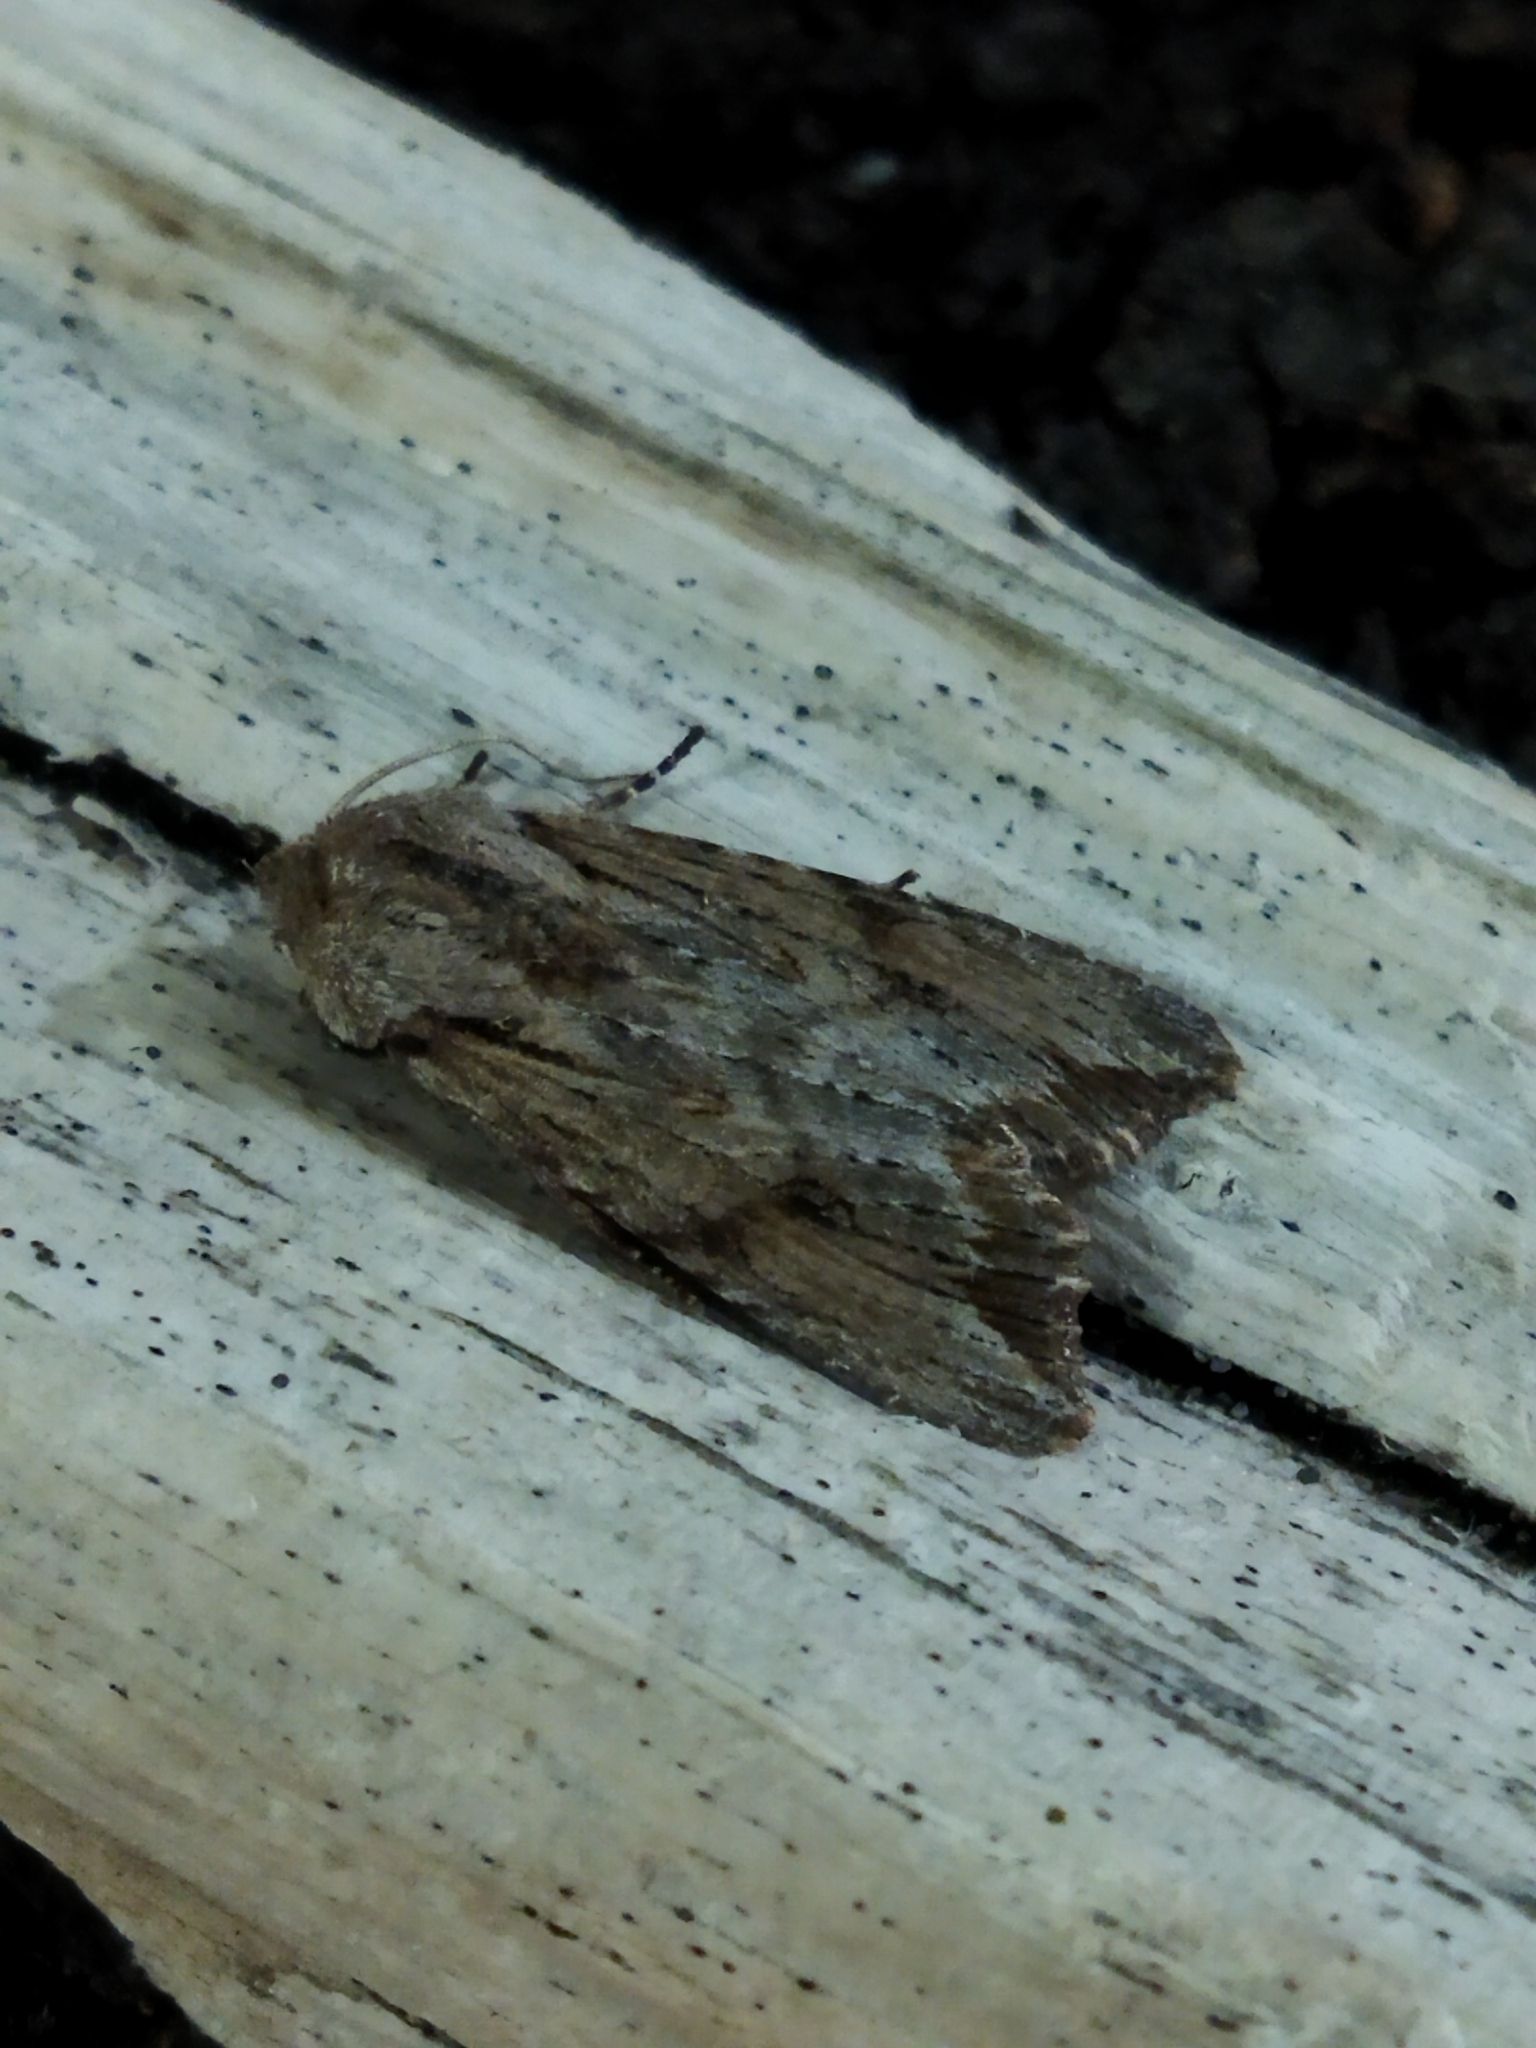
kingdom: Animalia
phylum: Arthropoda
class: Insecta
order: Lepidoptera
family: Noctuidae
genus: Egira
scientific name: Egira
